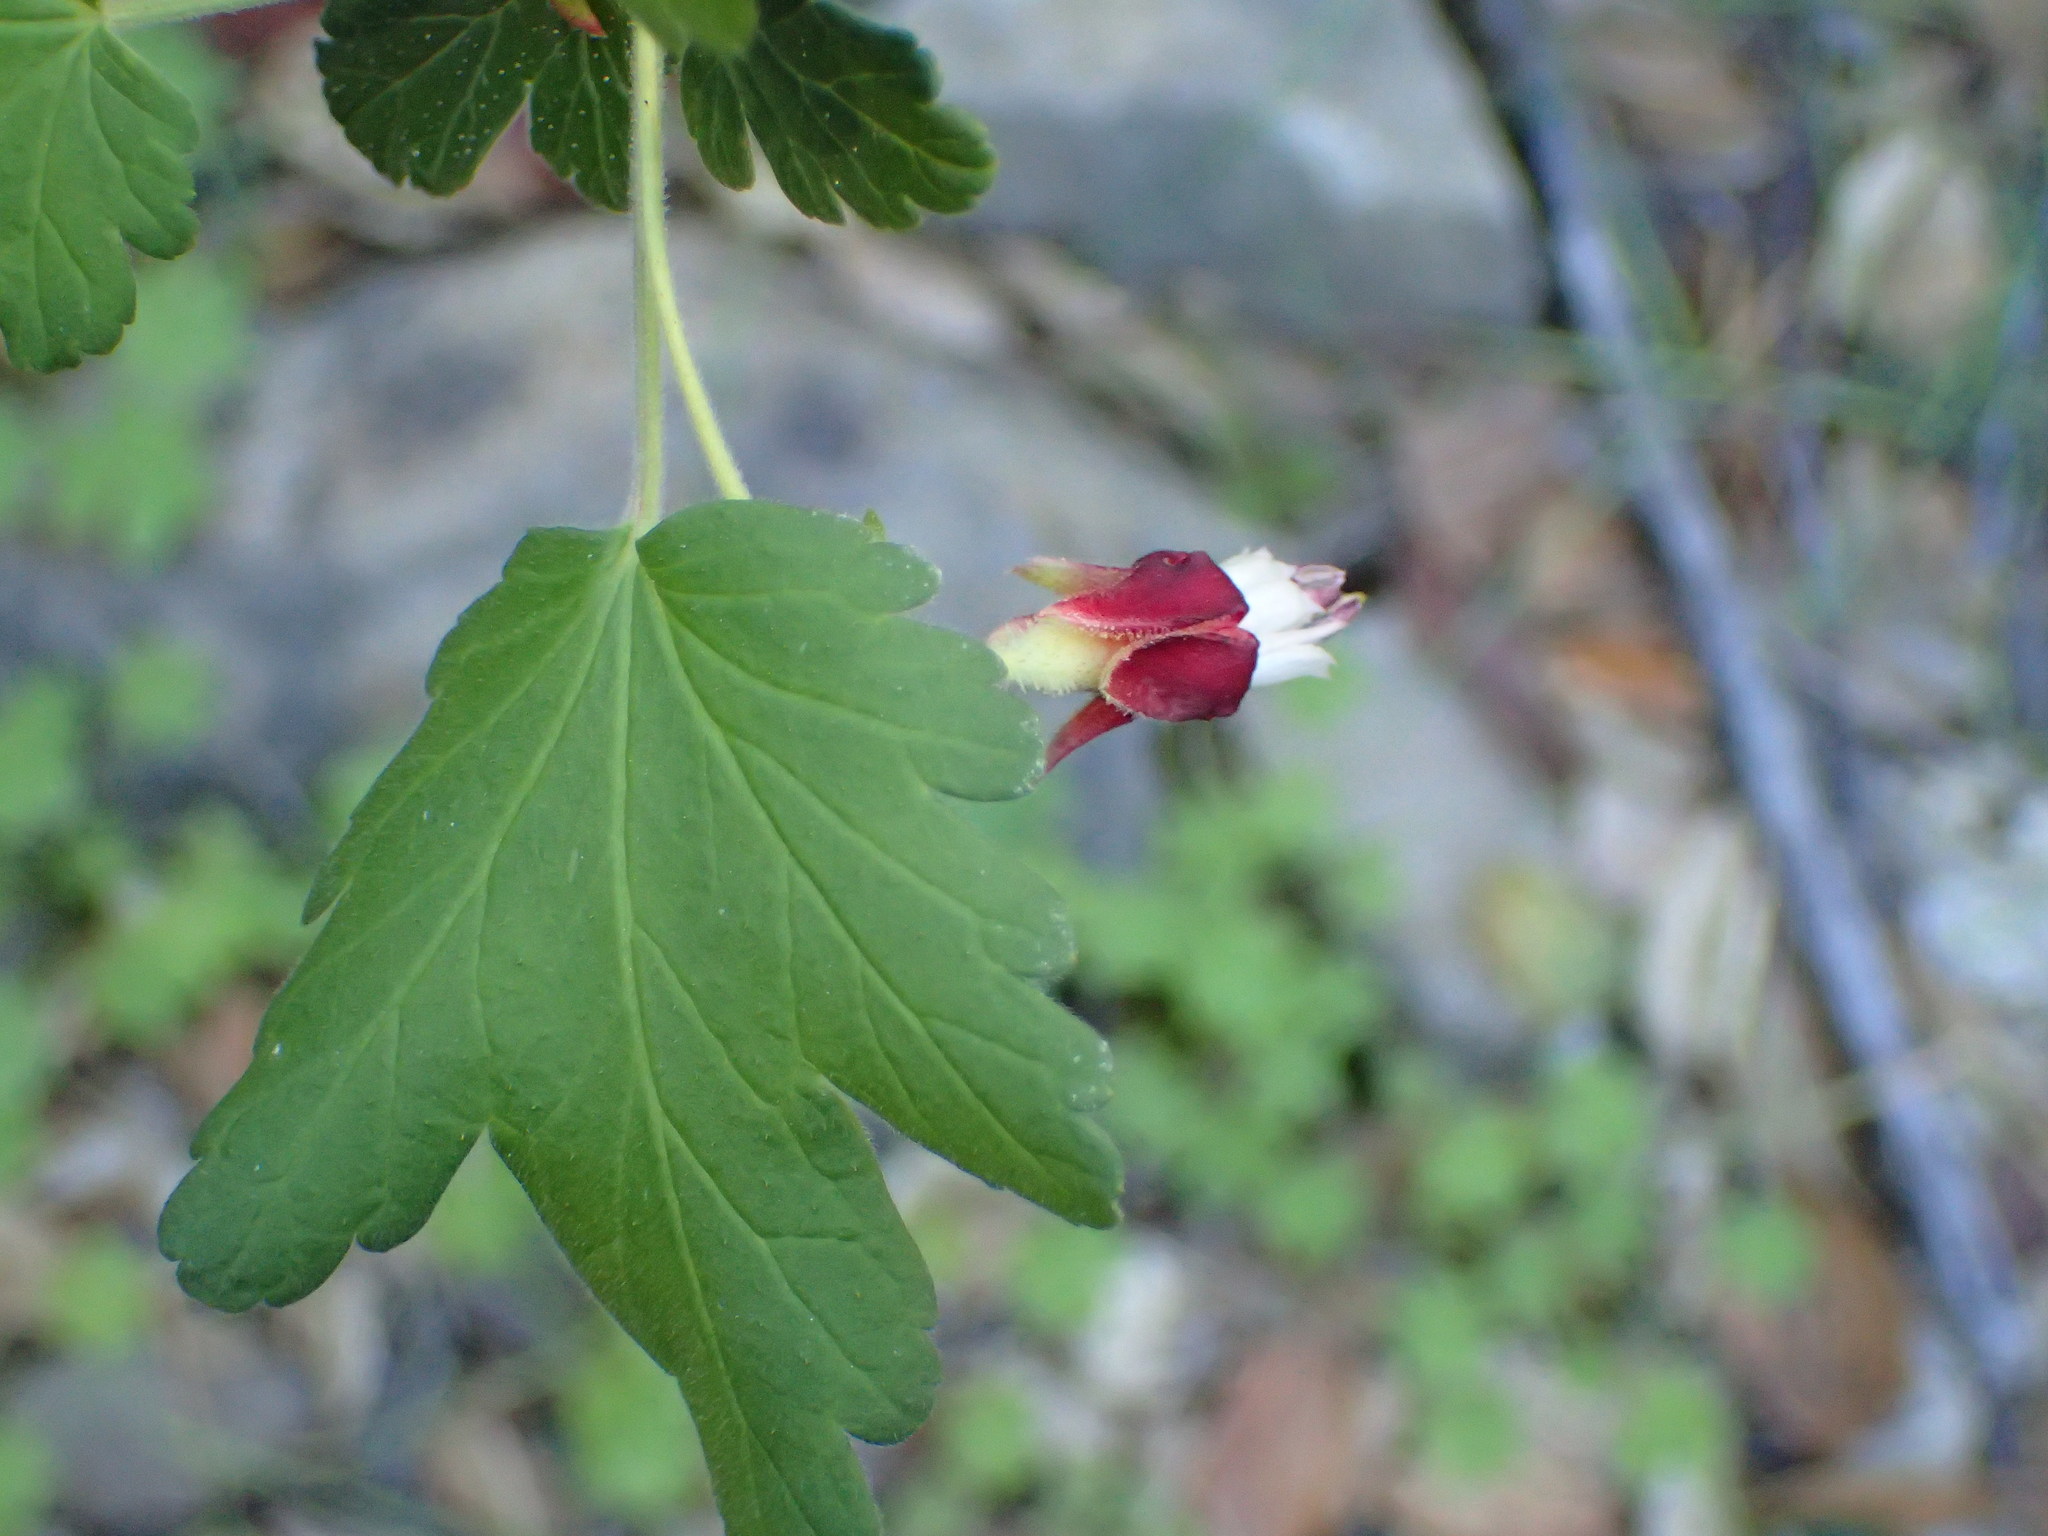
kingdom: Plantae
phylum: Tracheophyta
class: Magnoliopsida
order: Saxifragales
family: Grossulariaceae
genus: Ribes
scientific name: Ribes amarum
